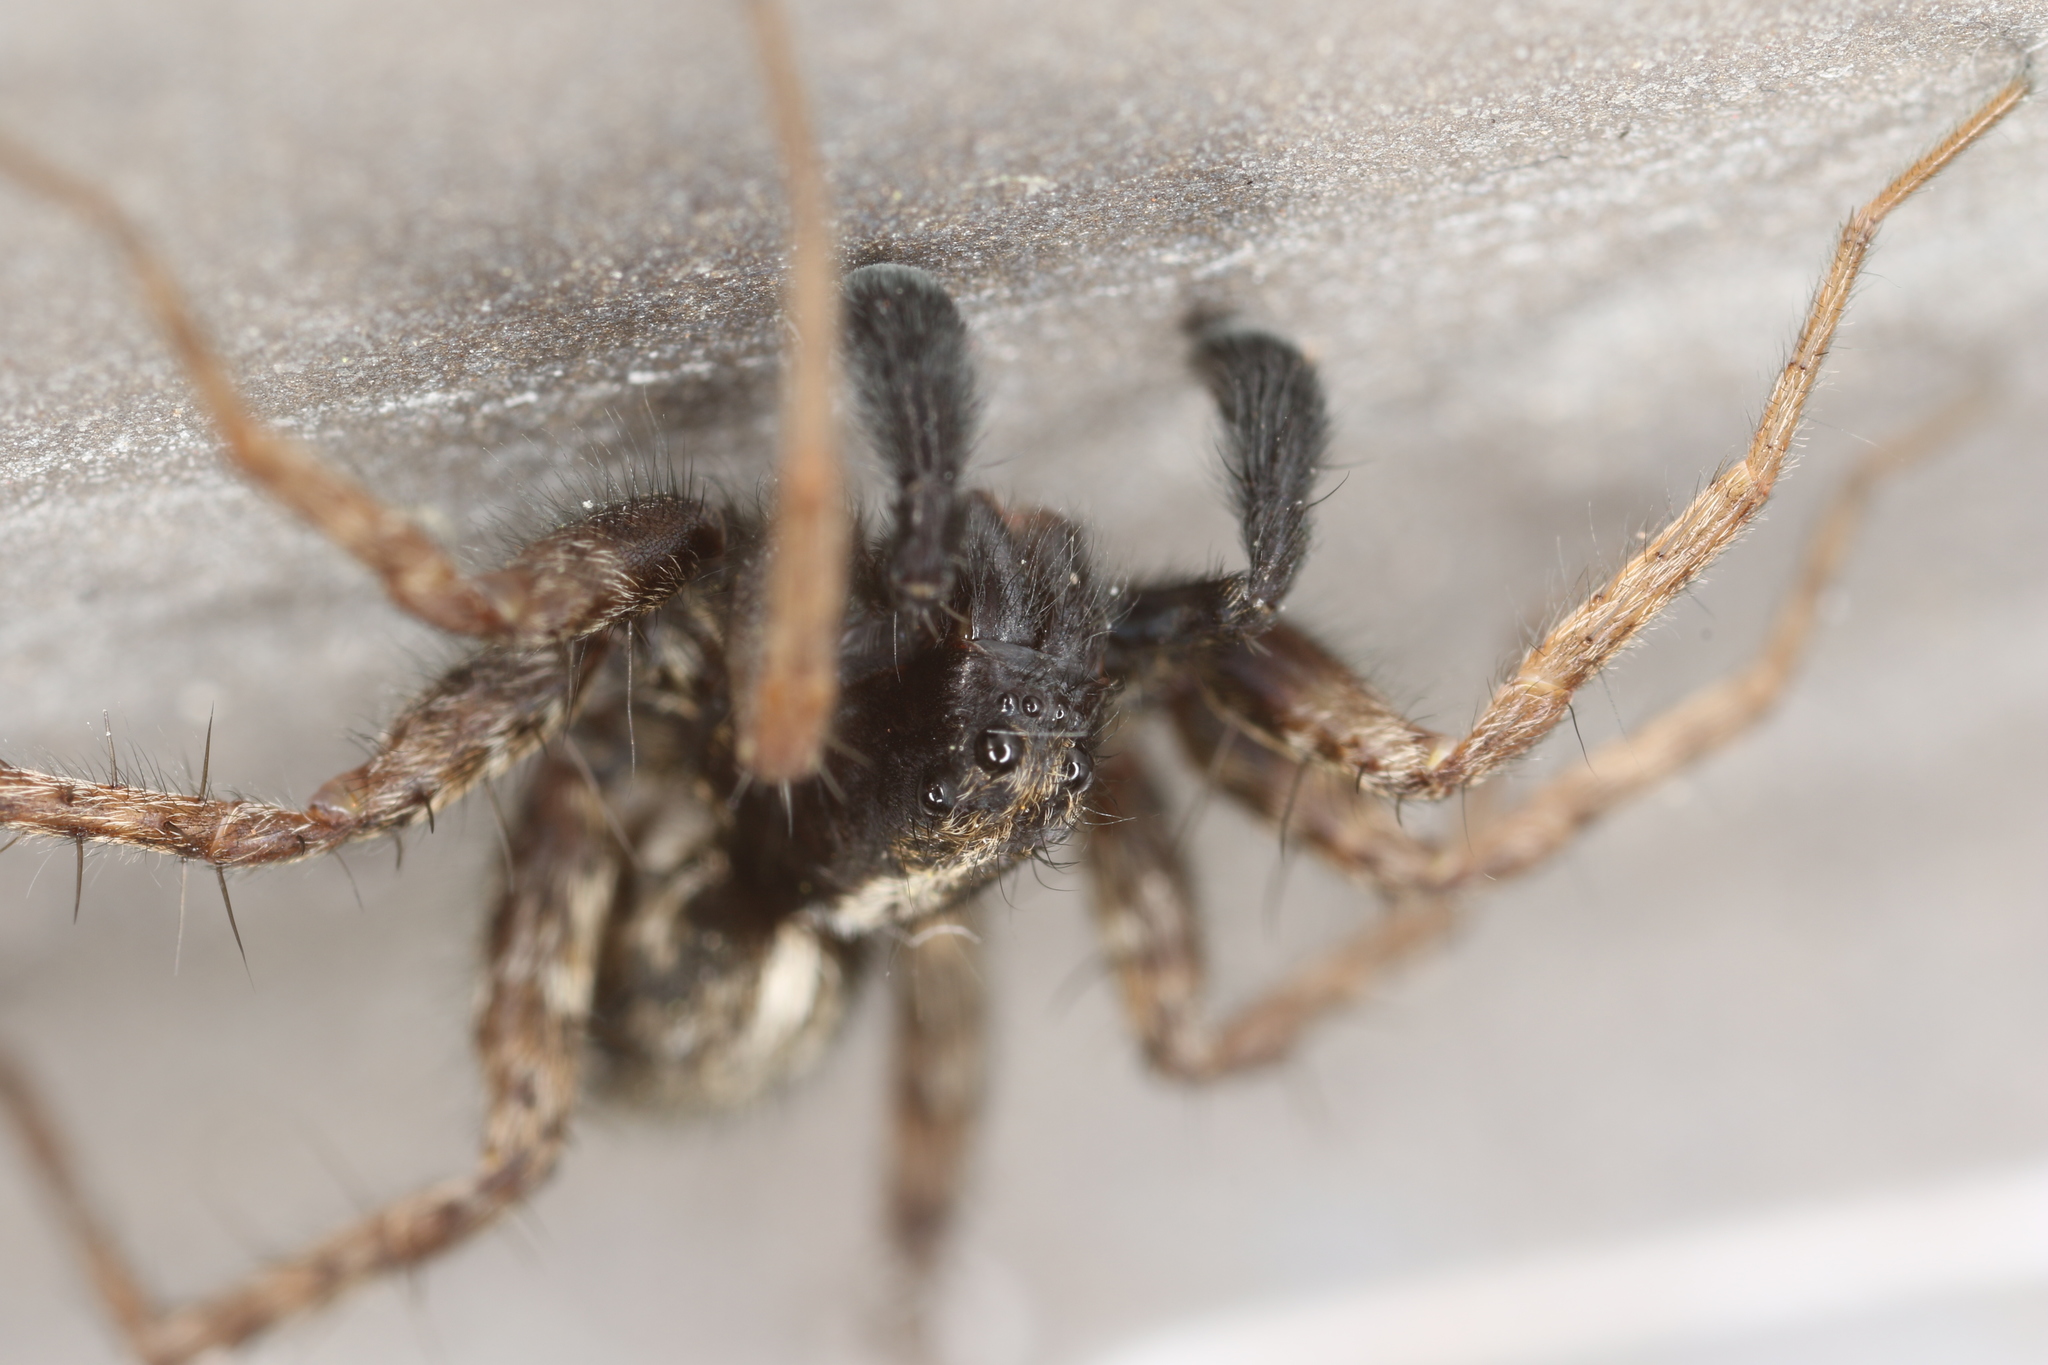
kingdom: Animalia
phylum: Arthropoda
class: Arachnida
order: Araneae
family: Lycosidae
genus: Pardosa
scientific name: Pardosa amentata
